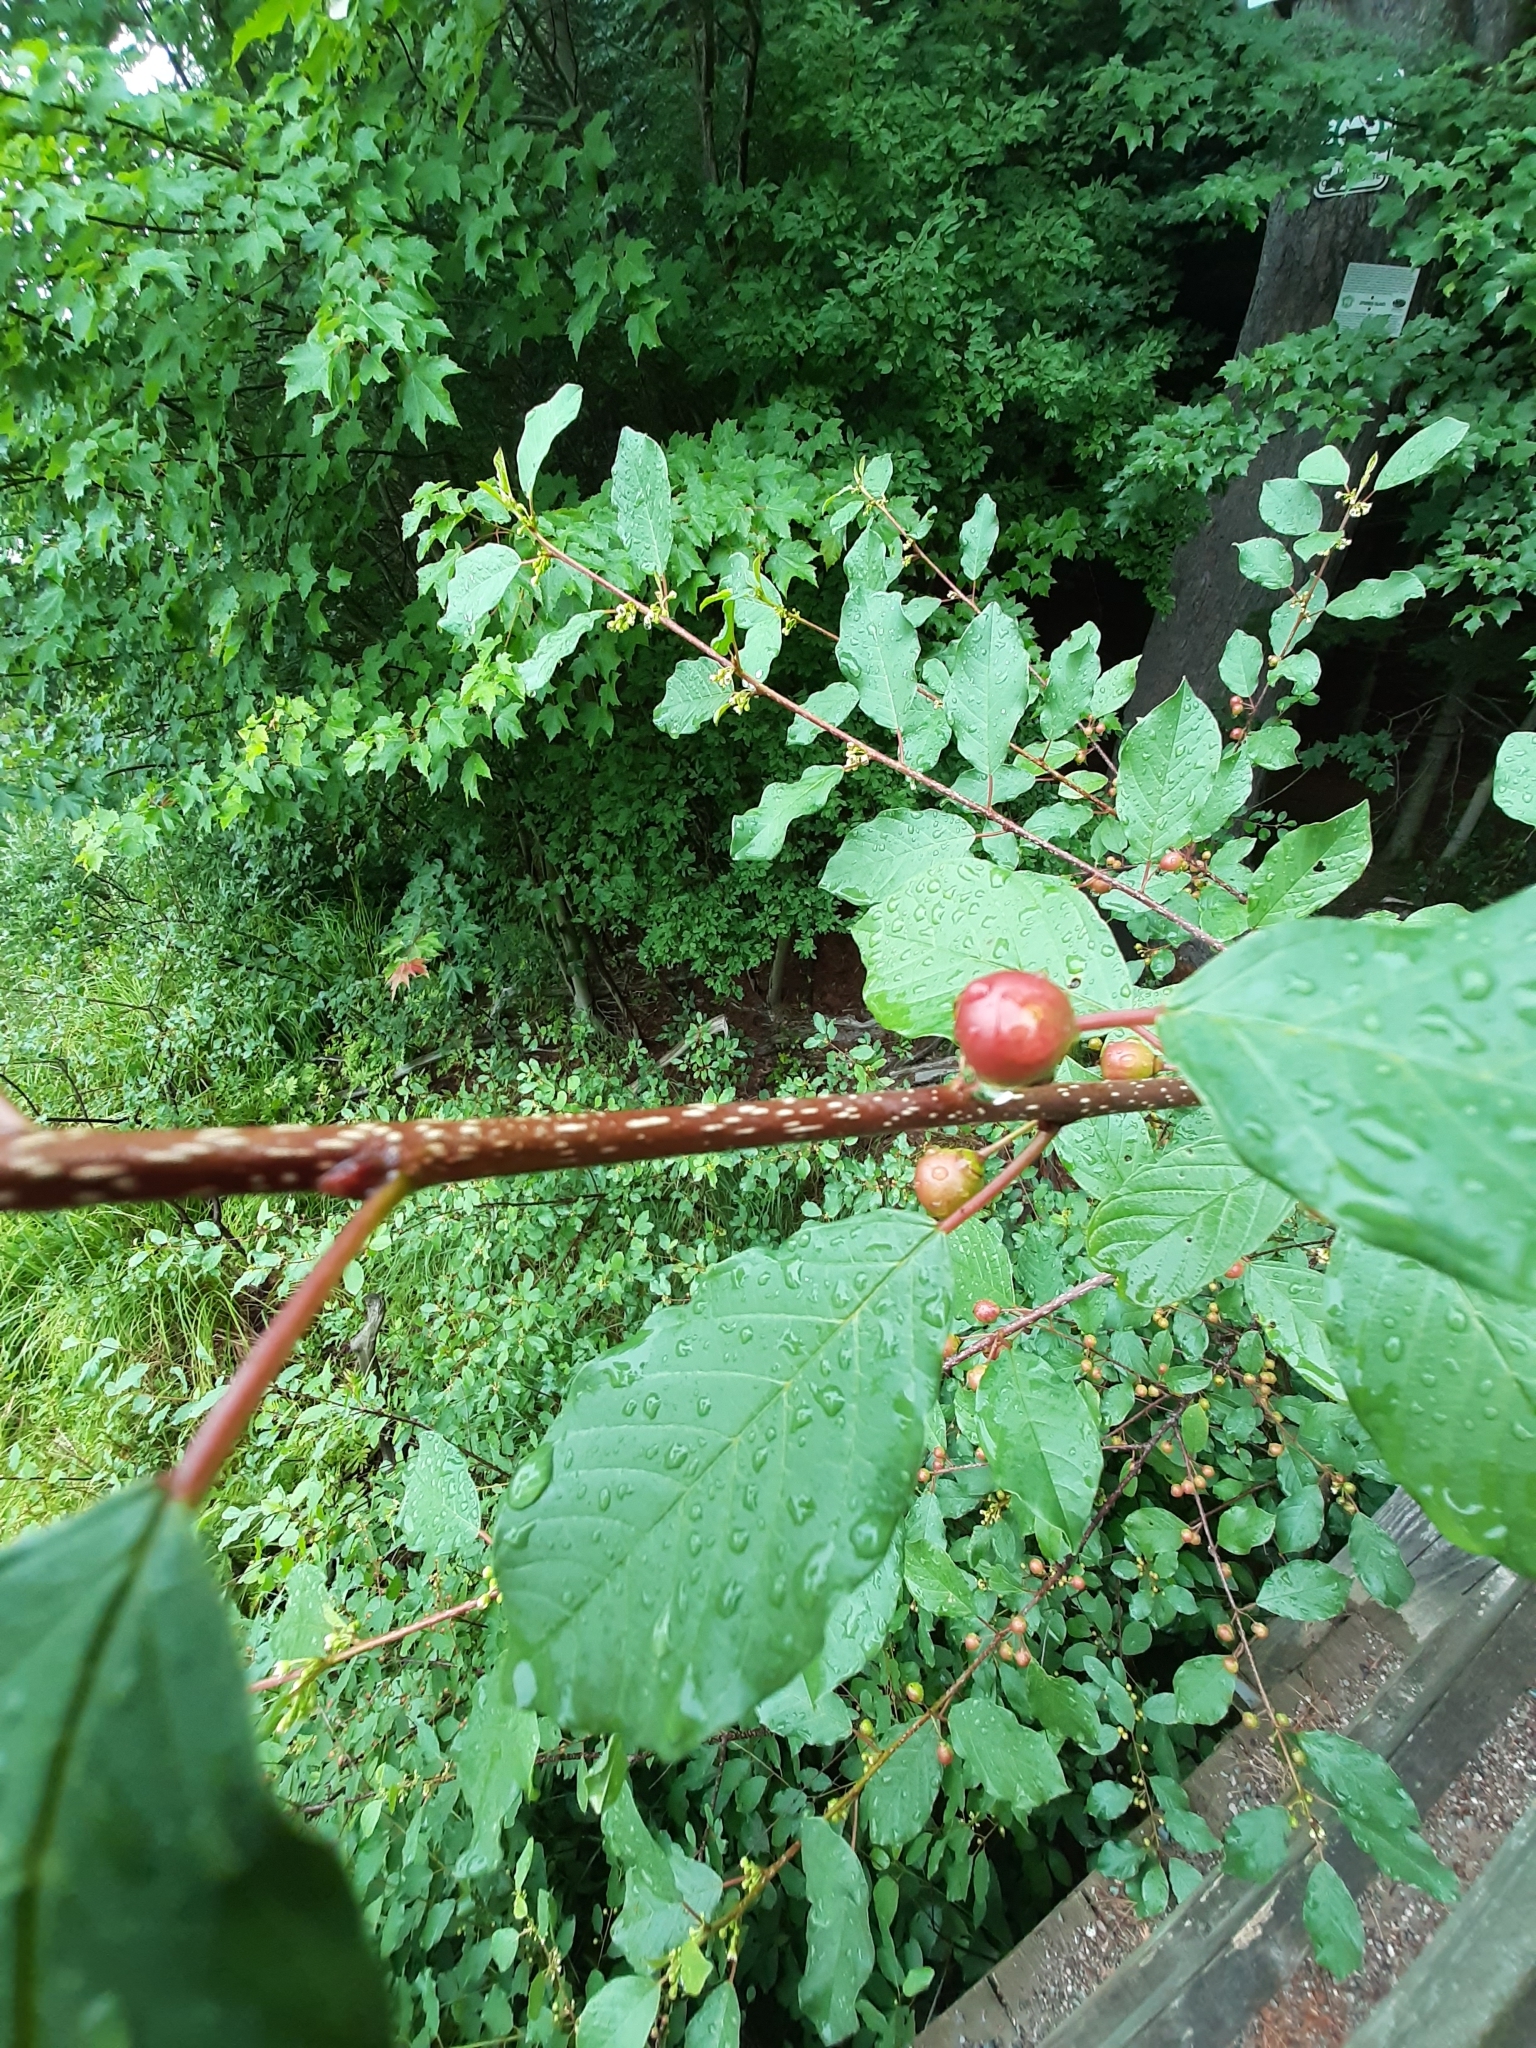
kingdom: Plantae
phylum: Tracheophyta
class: Magnoliopsida
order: Rosales
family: Rhamnaceae
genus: Frangula
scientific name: Frangula alnus
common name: Alder buckthorn
